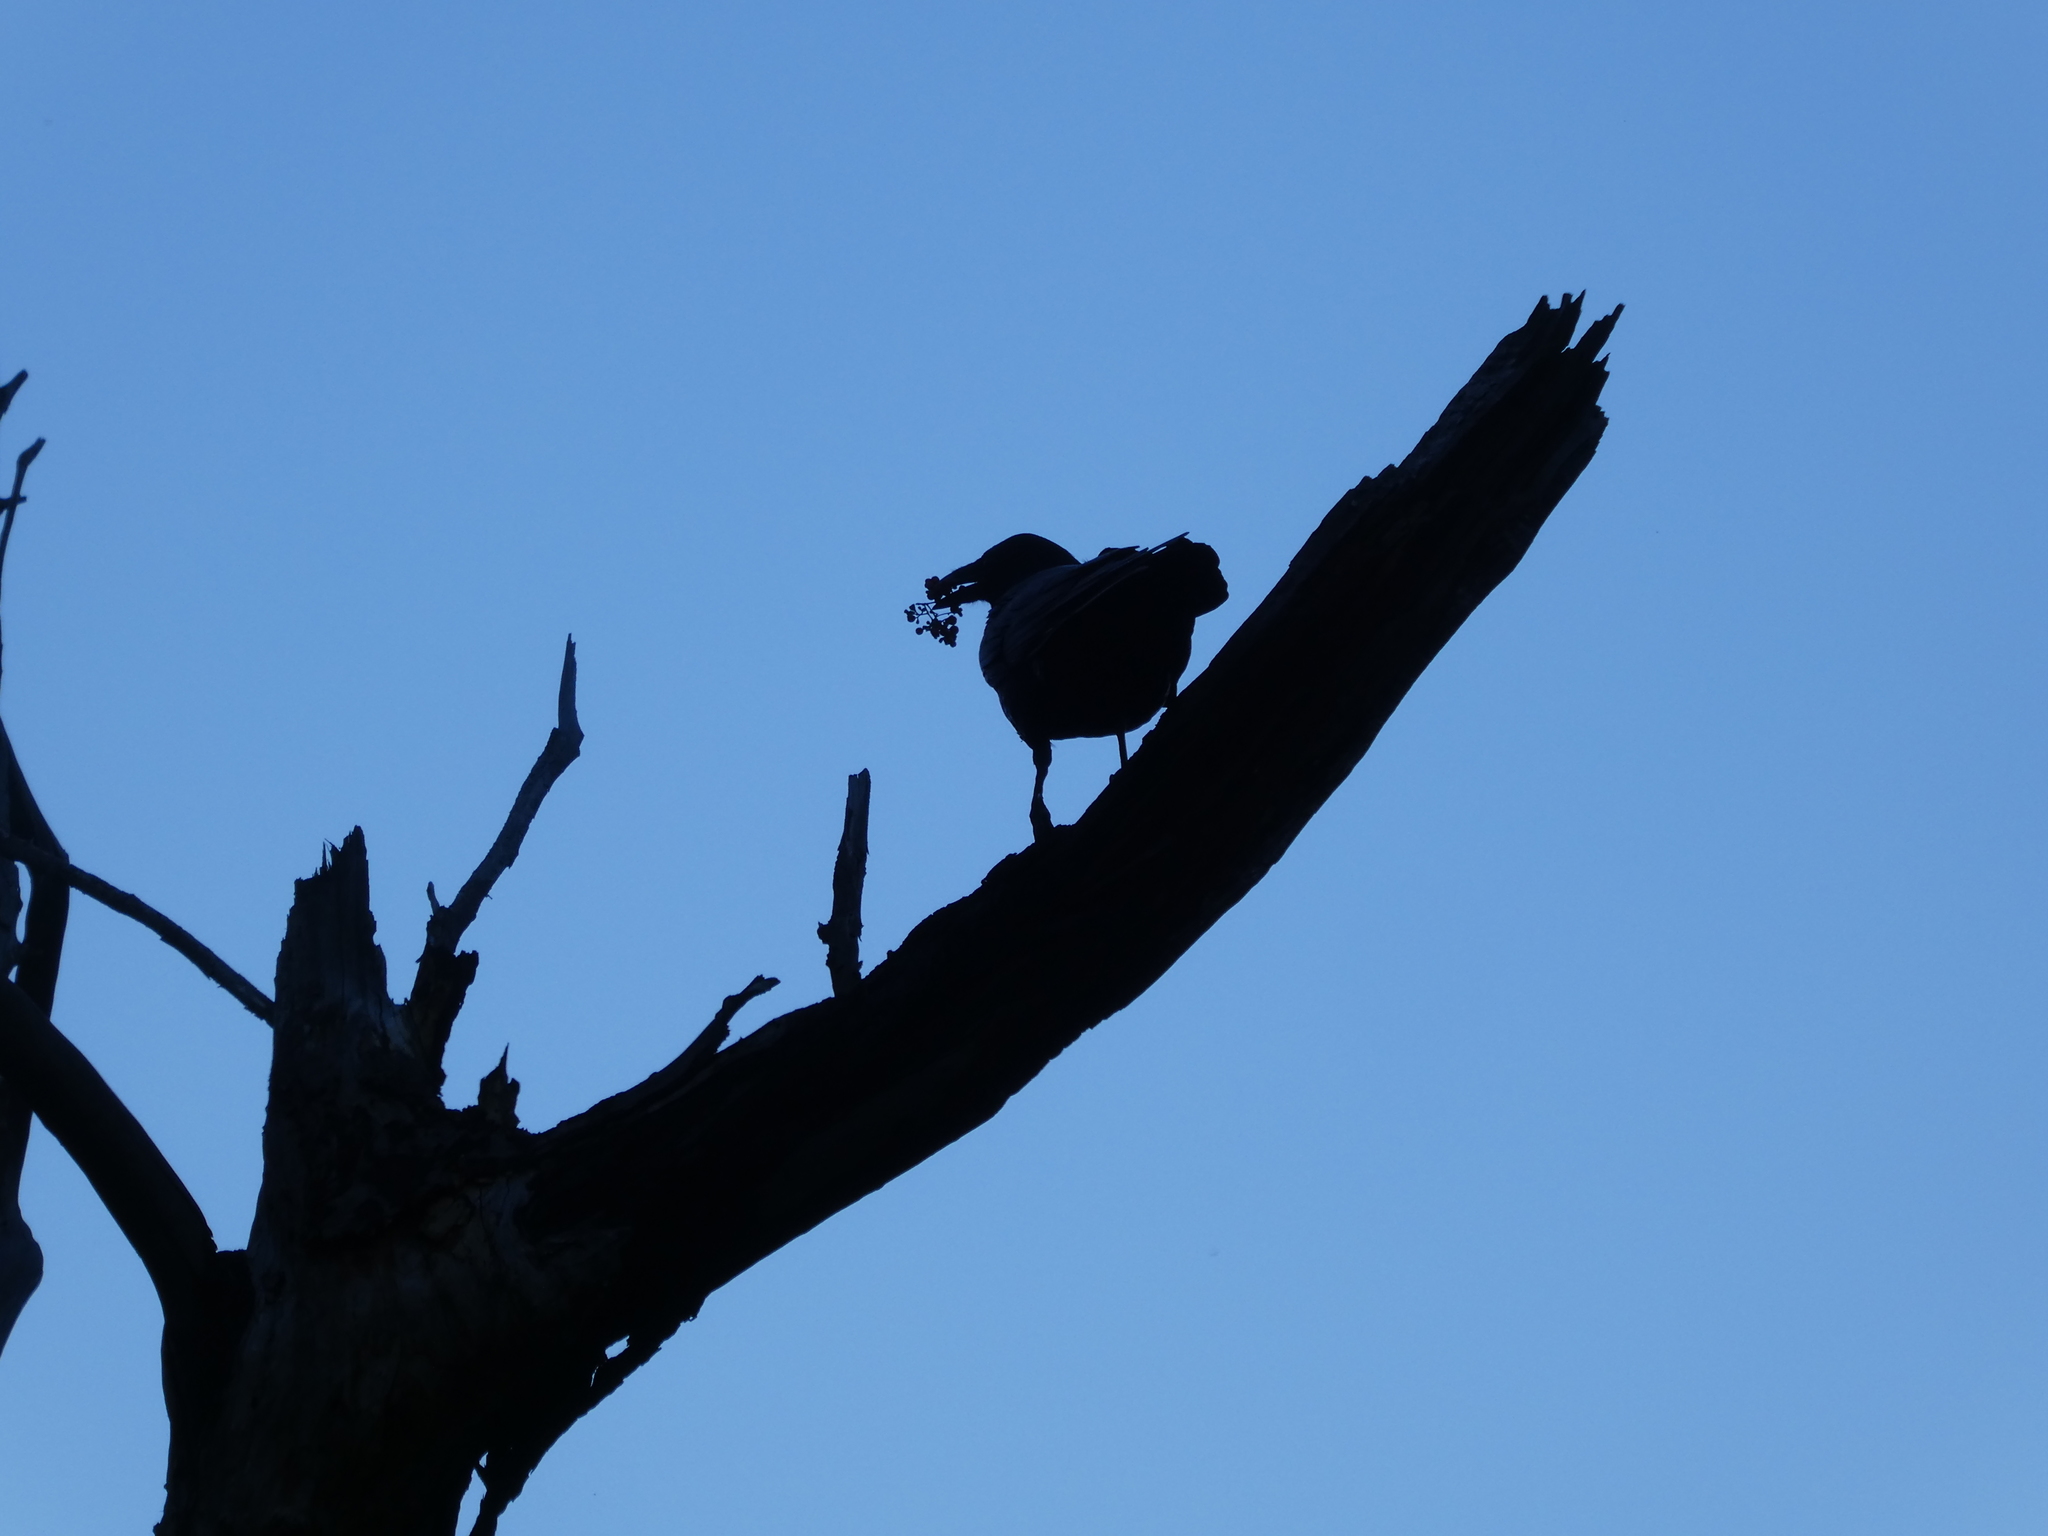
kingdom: Animalia
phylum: Chordata
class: Aves
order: Passeriformes
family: Corvidae
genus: Corvus
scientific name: Corvus corax
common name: Common raven
